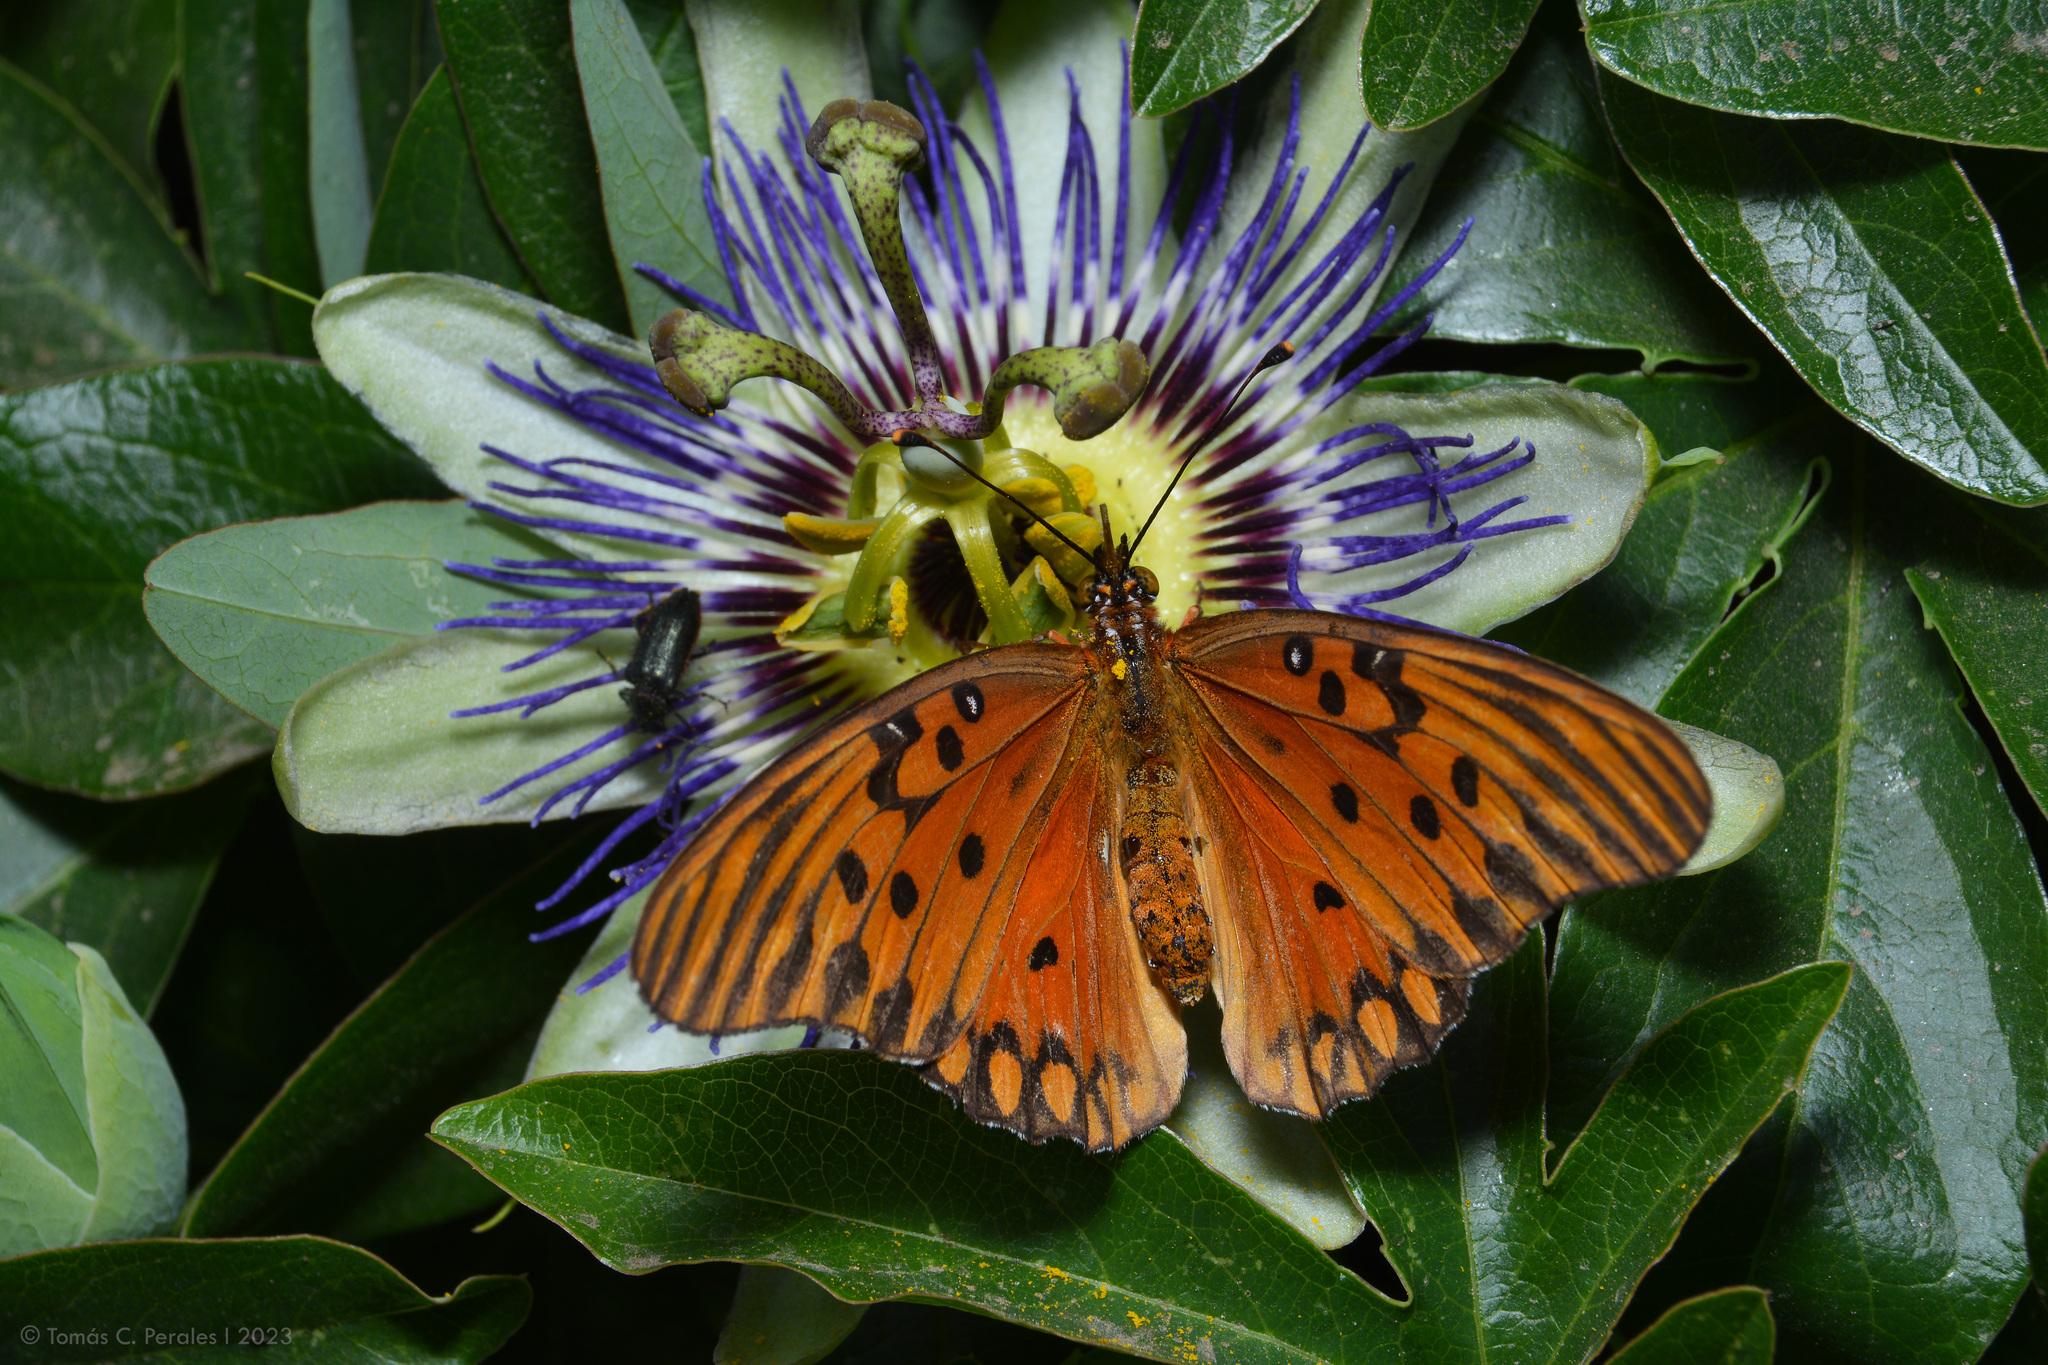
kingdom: Plantae
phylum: Tracheophyta
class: Magnoliopsida
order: Malpighiales
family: Passifloraceae
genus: Passiflora
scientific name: Passiflora caerulea
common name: Blue passionflower
